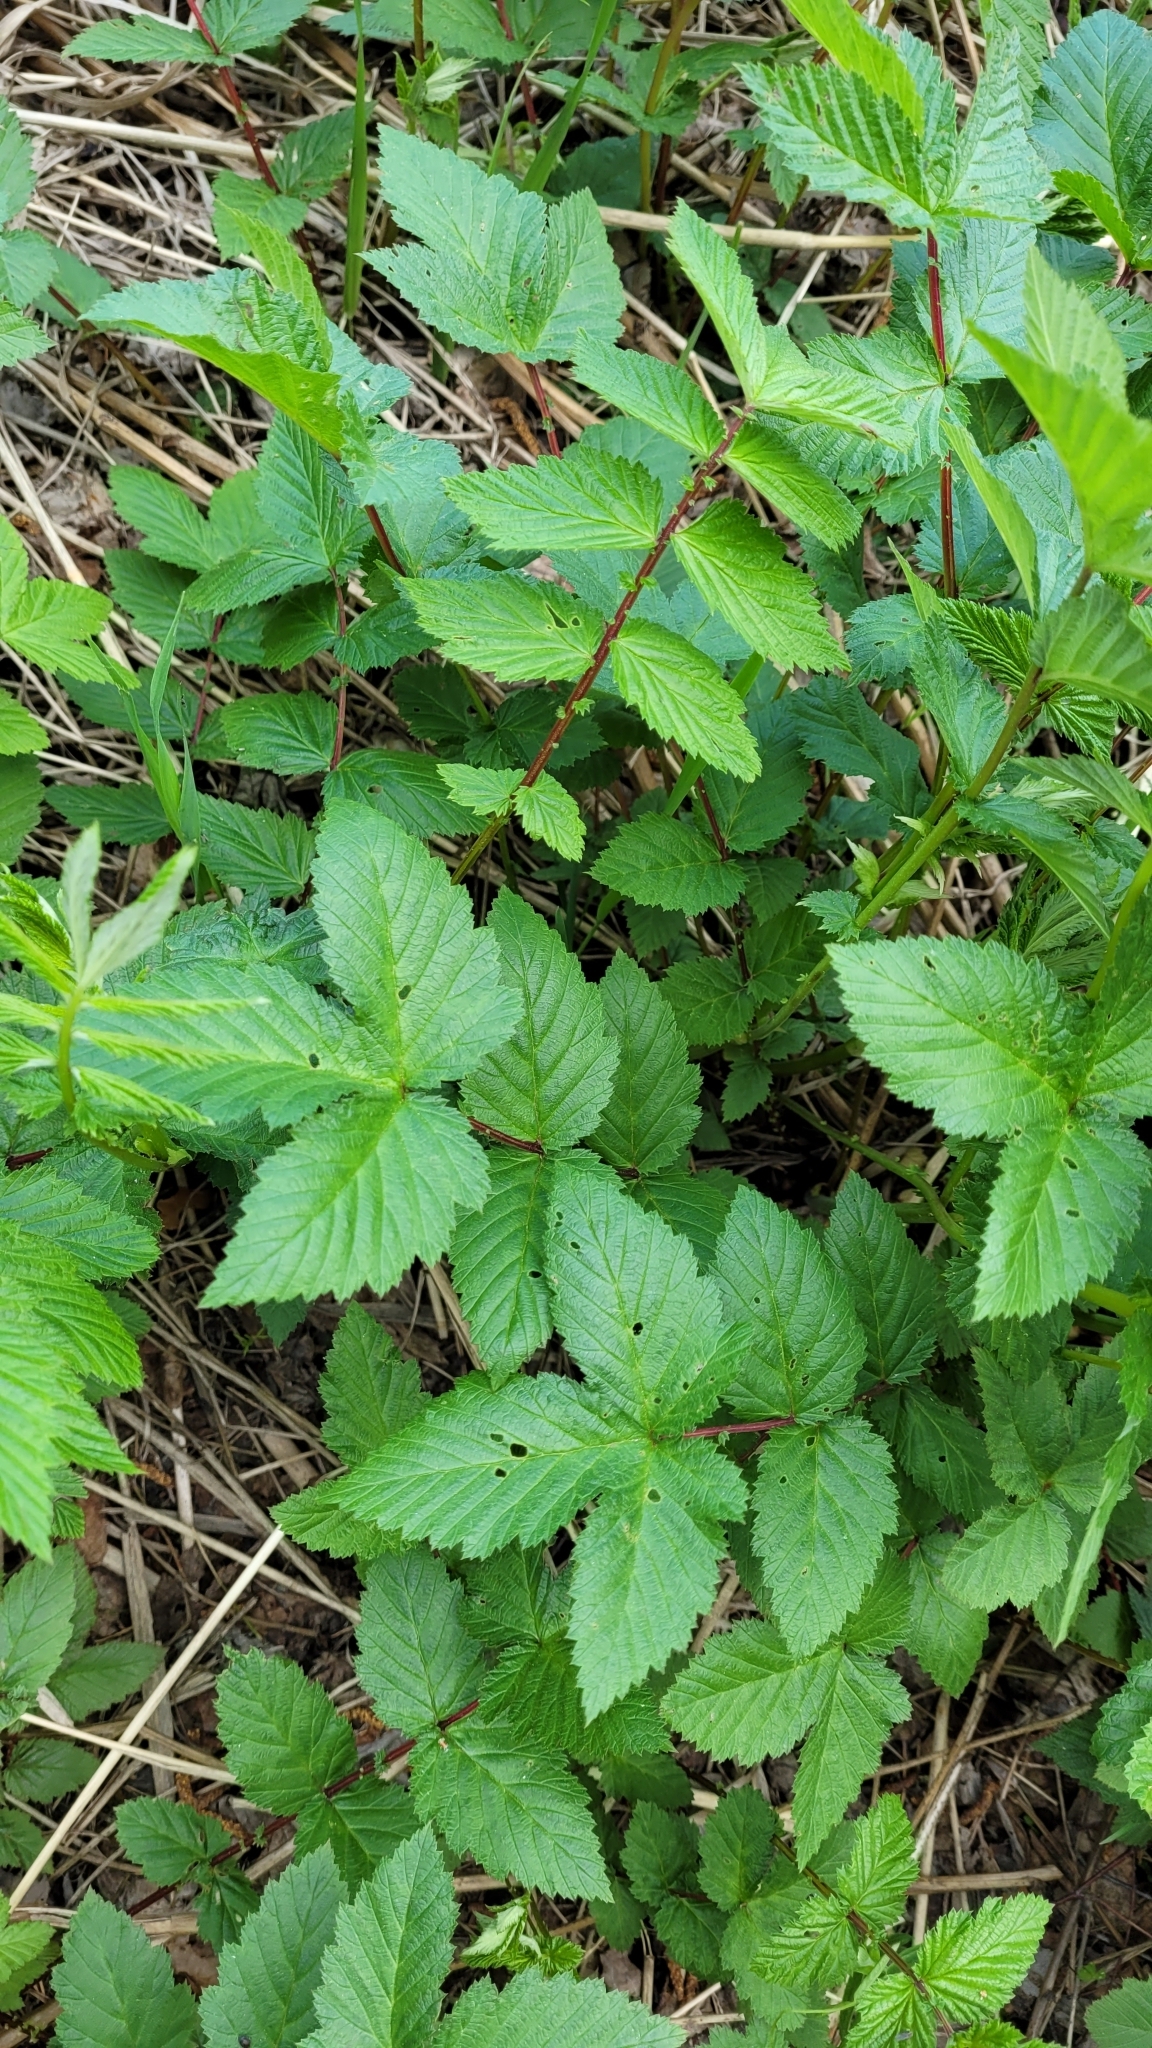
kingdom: Plantae
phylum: Tracheophyta
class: Magnoliopsida
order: Rosales
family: Rosaceae
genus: Filipendula
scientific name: Filipendula ulmaria
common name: Meadowsweet
